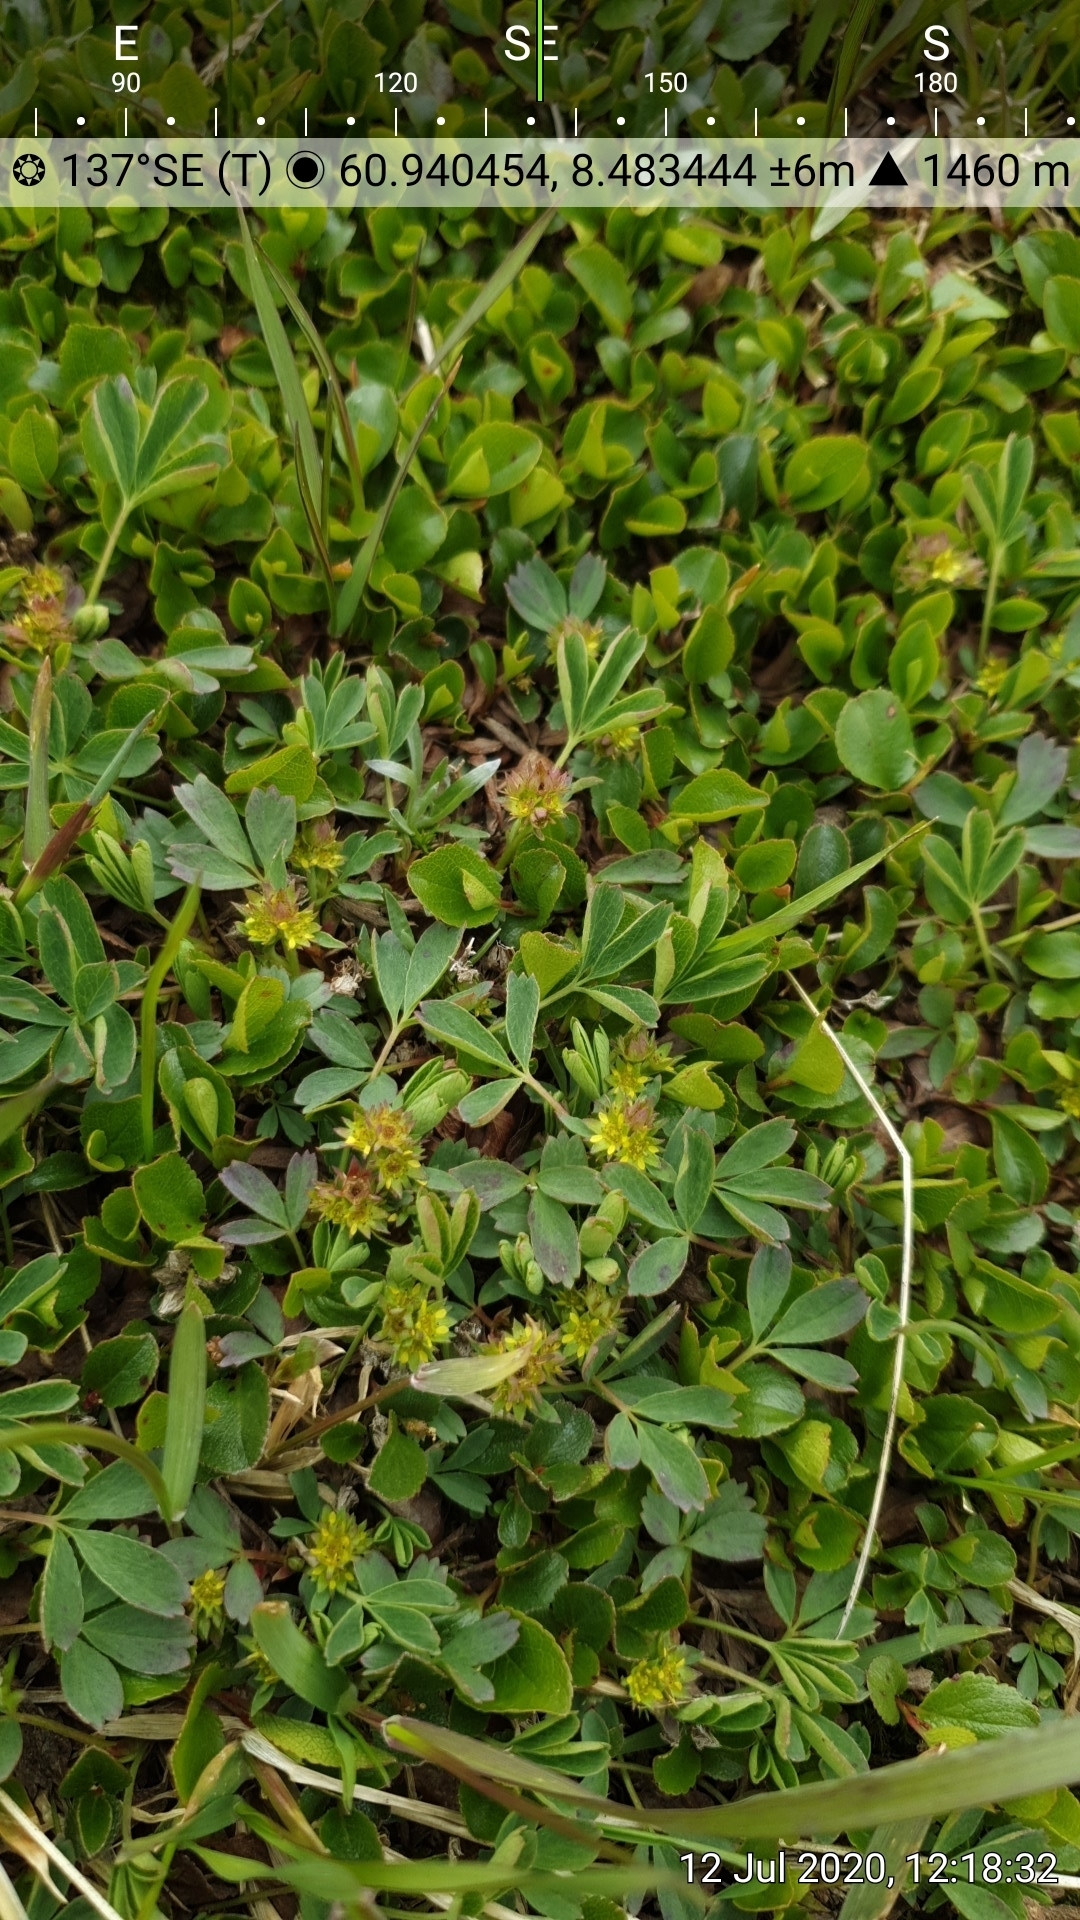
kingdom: Plantae
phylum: Tracheophyta
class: Magnoliopsida
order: Rosales
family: Rosaceae
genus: Sibbaldia
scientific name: Sibbaldia procumbens
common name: Creeping sibbaldia
